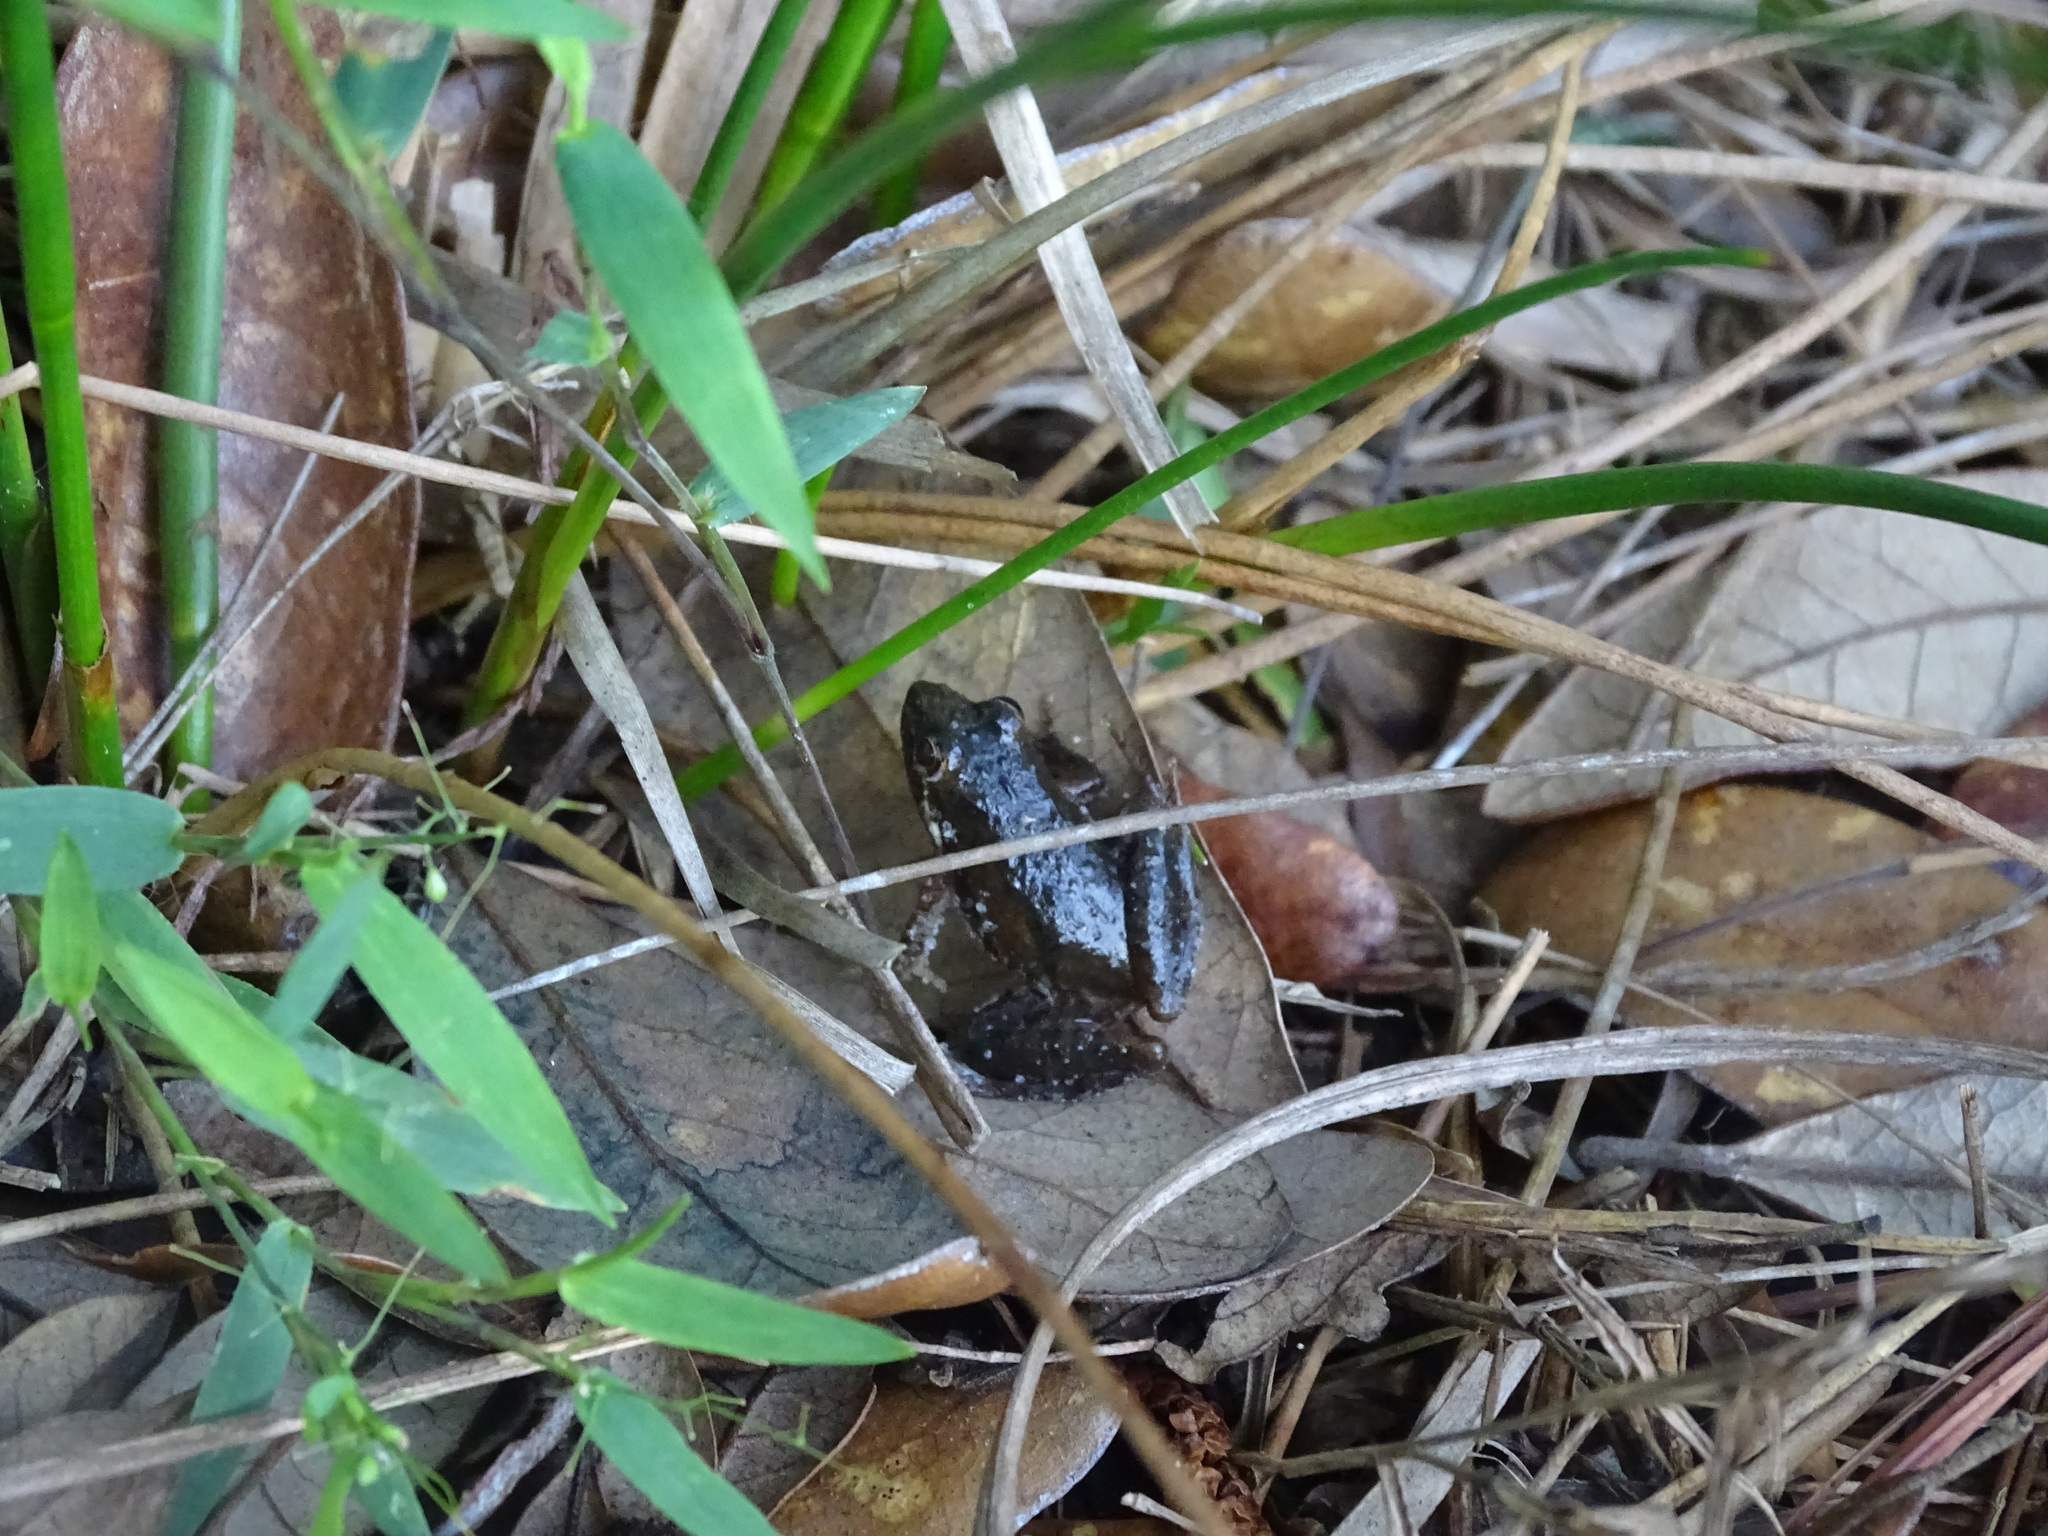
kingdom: Animalia
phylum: Chordata
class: Amphibia
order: Anura
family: Hylidae
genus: Acris
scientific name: Acris gryllus
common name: Southern cricket frog
